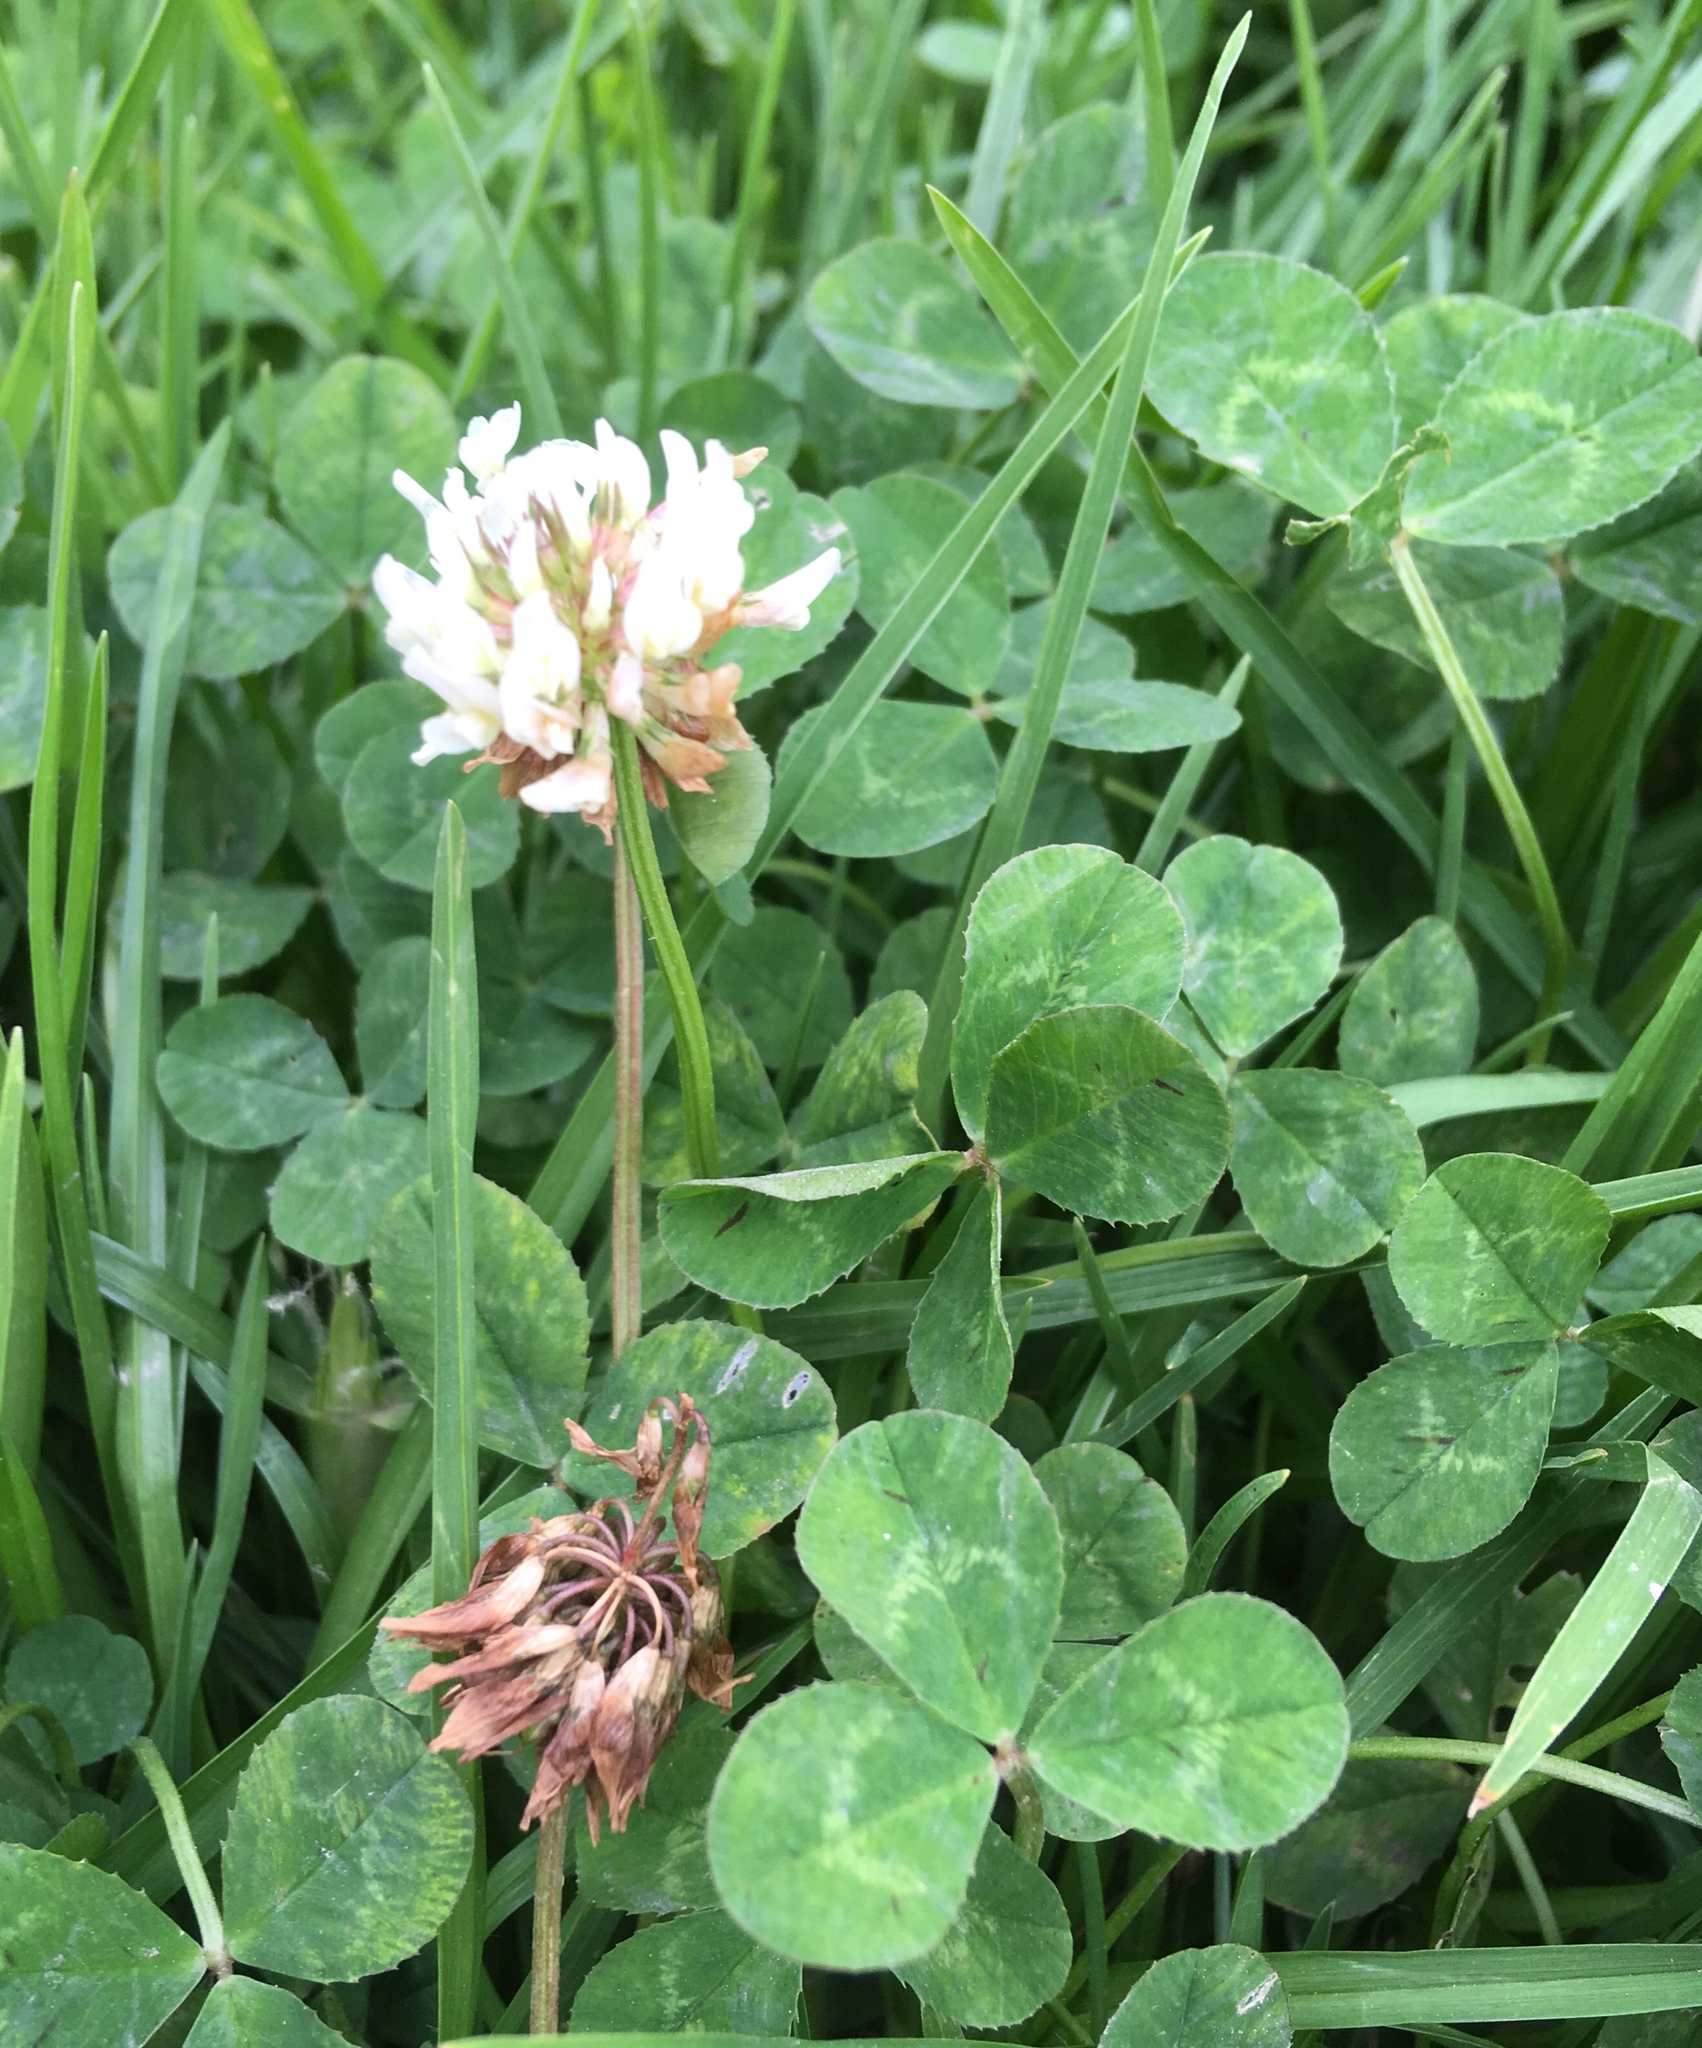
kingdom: Plantae
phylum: Tracheophyta
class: Magnoliopsida
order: Fabales
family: Fabaceae
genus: Trifolium
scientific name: Trifolium repens
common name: White clover
